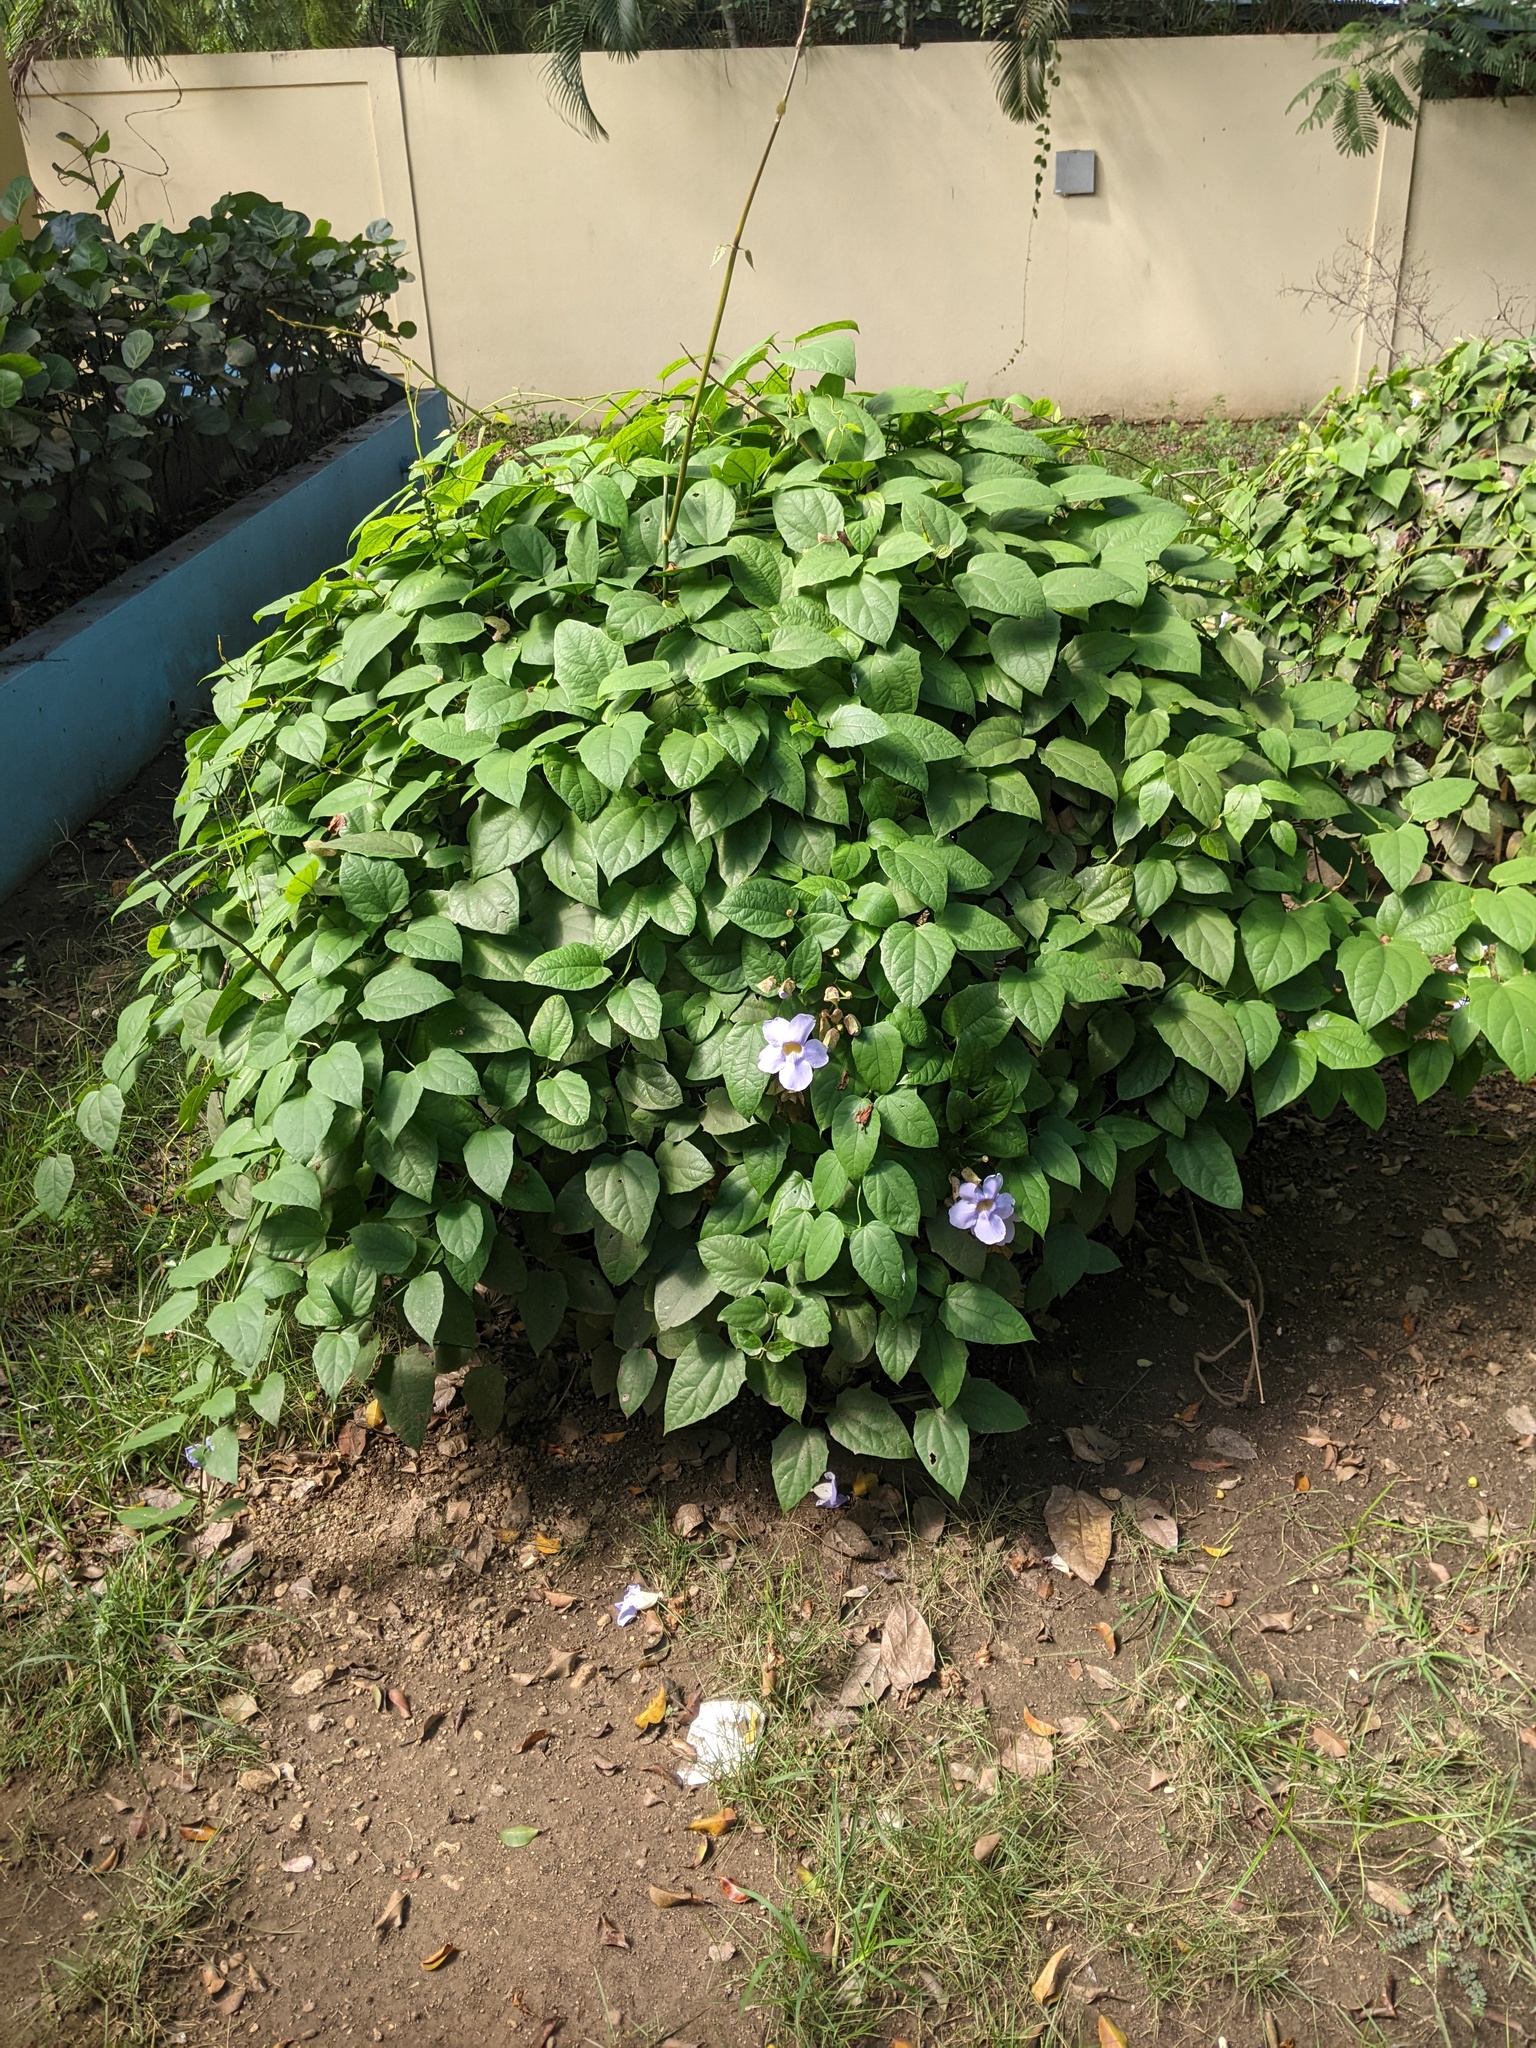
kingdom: Plantae
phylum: Tracheophyta
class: Magnoliopsida
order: Lamiales
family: Acanthaceae
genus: Thunbergia
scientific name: Thunbergia grandiflora
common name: Bengal trumpet
